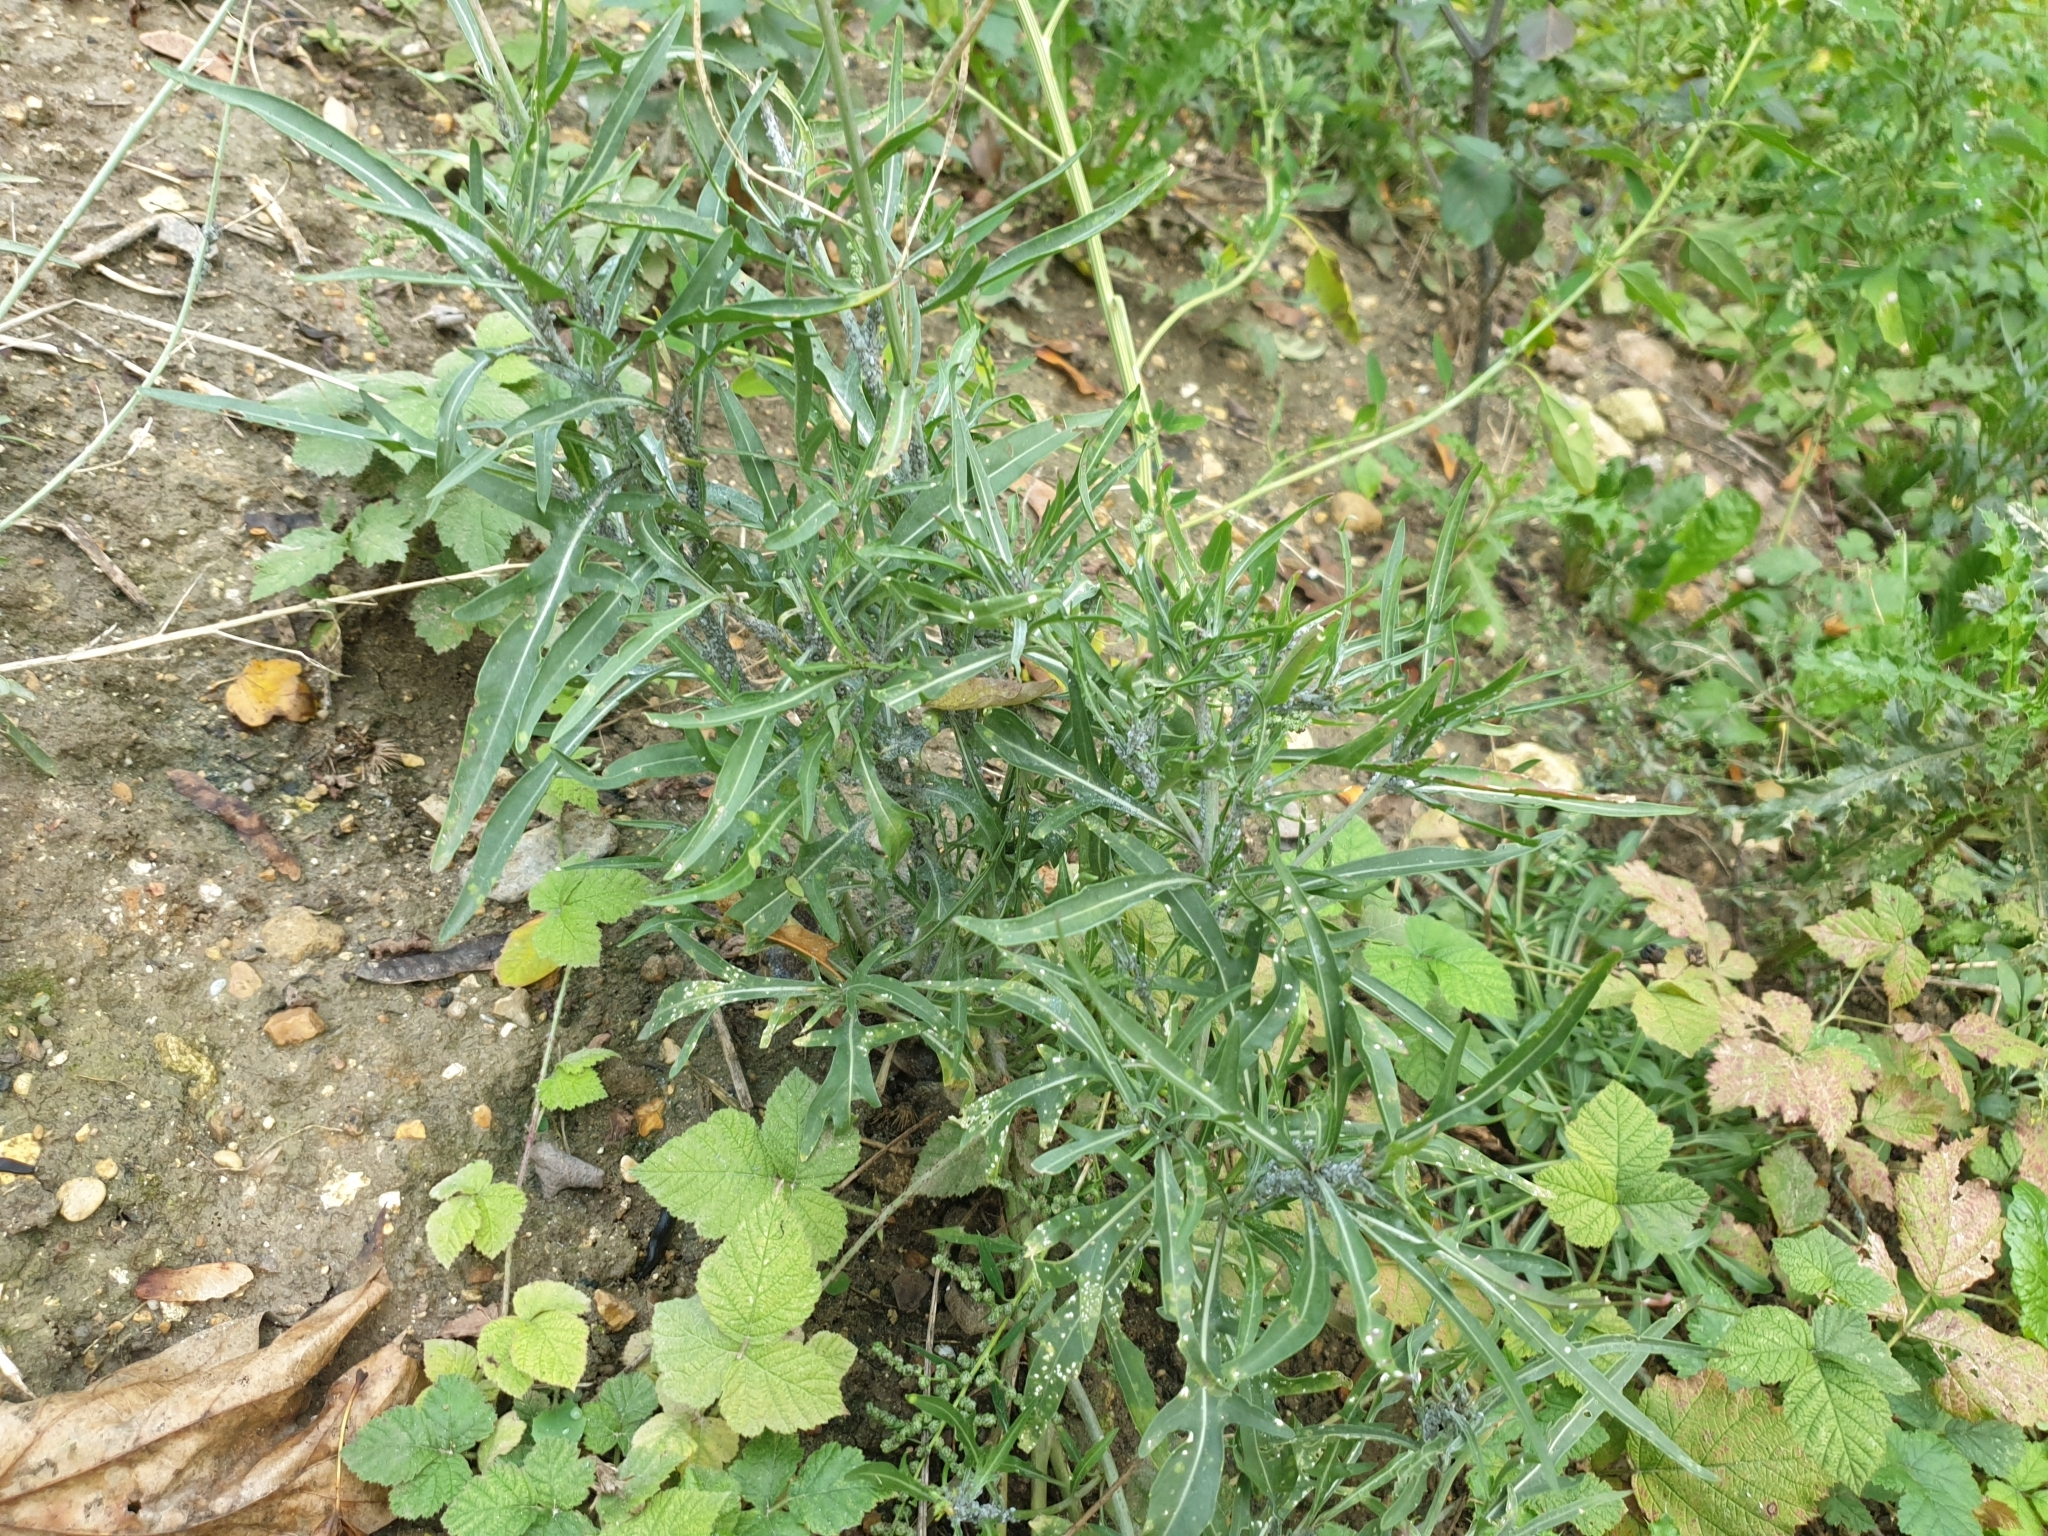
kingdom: Plantae
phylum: Tracheophyta
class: Magnoliopsida
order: Brassicales
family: Brassicaceae
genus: Diplotaxis
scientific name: Diplotaxis tenuifolia
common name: Perennial wall-rocket
